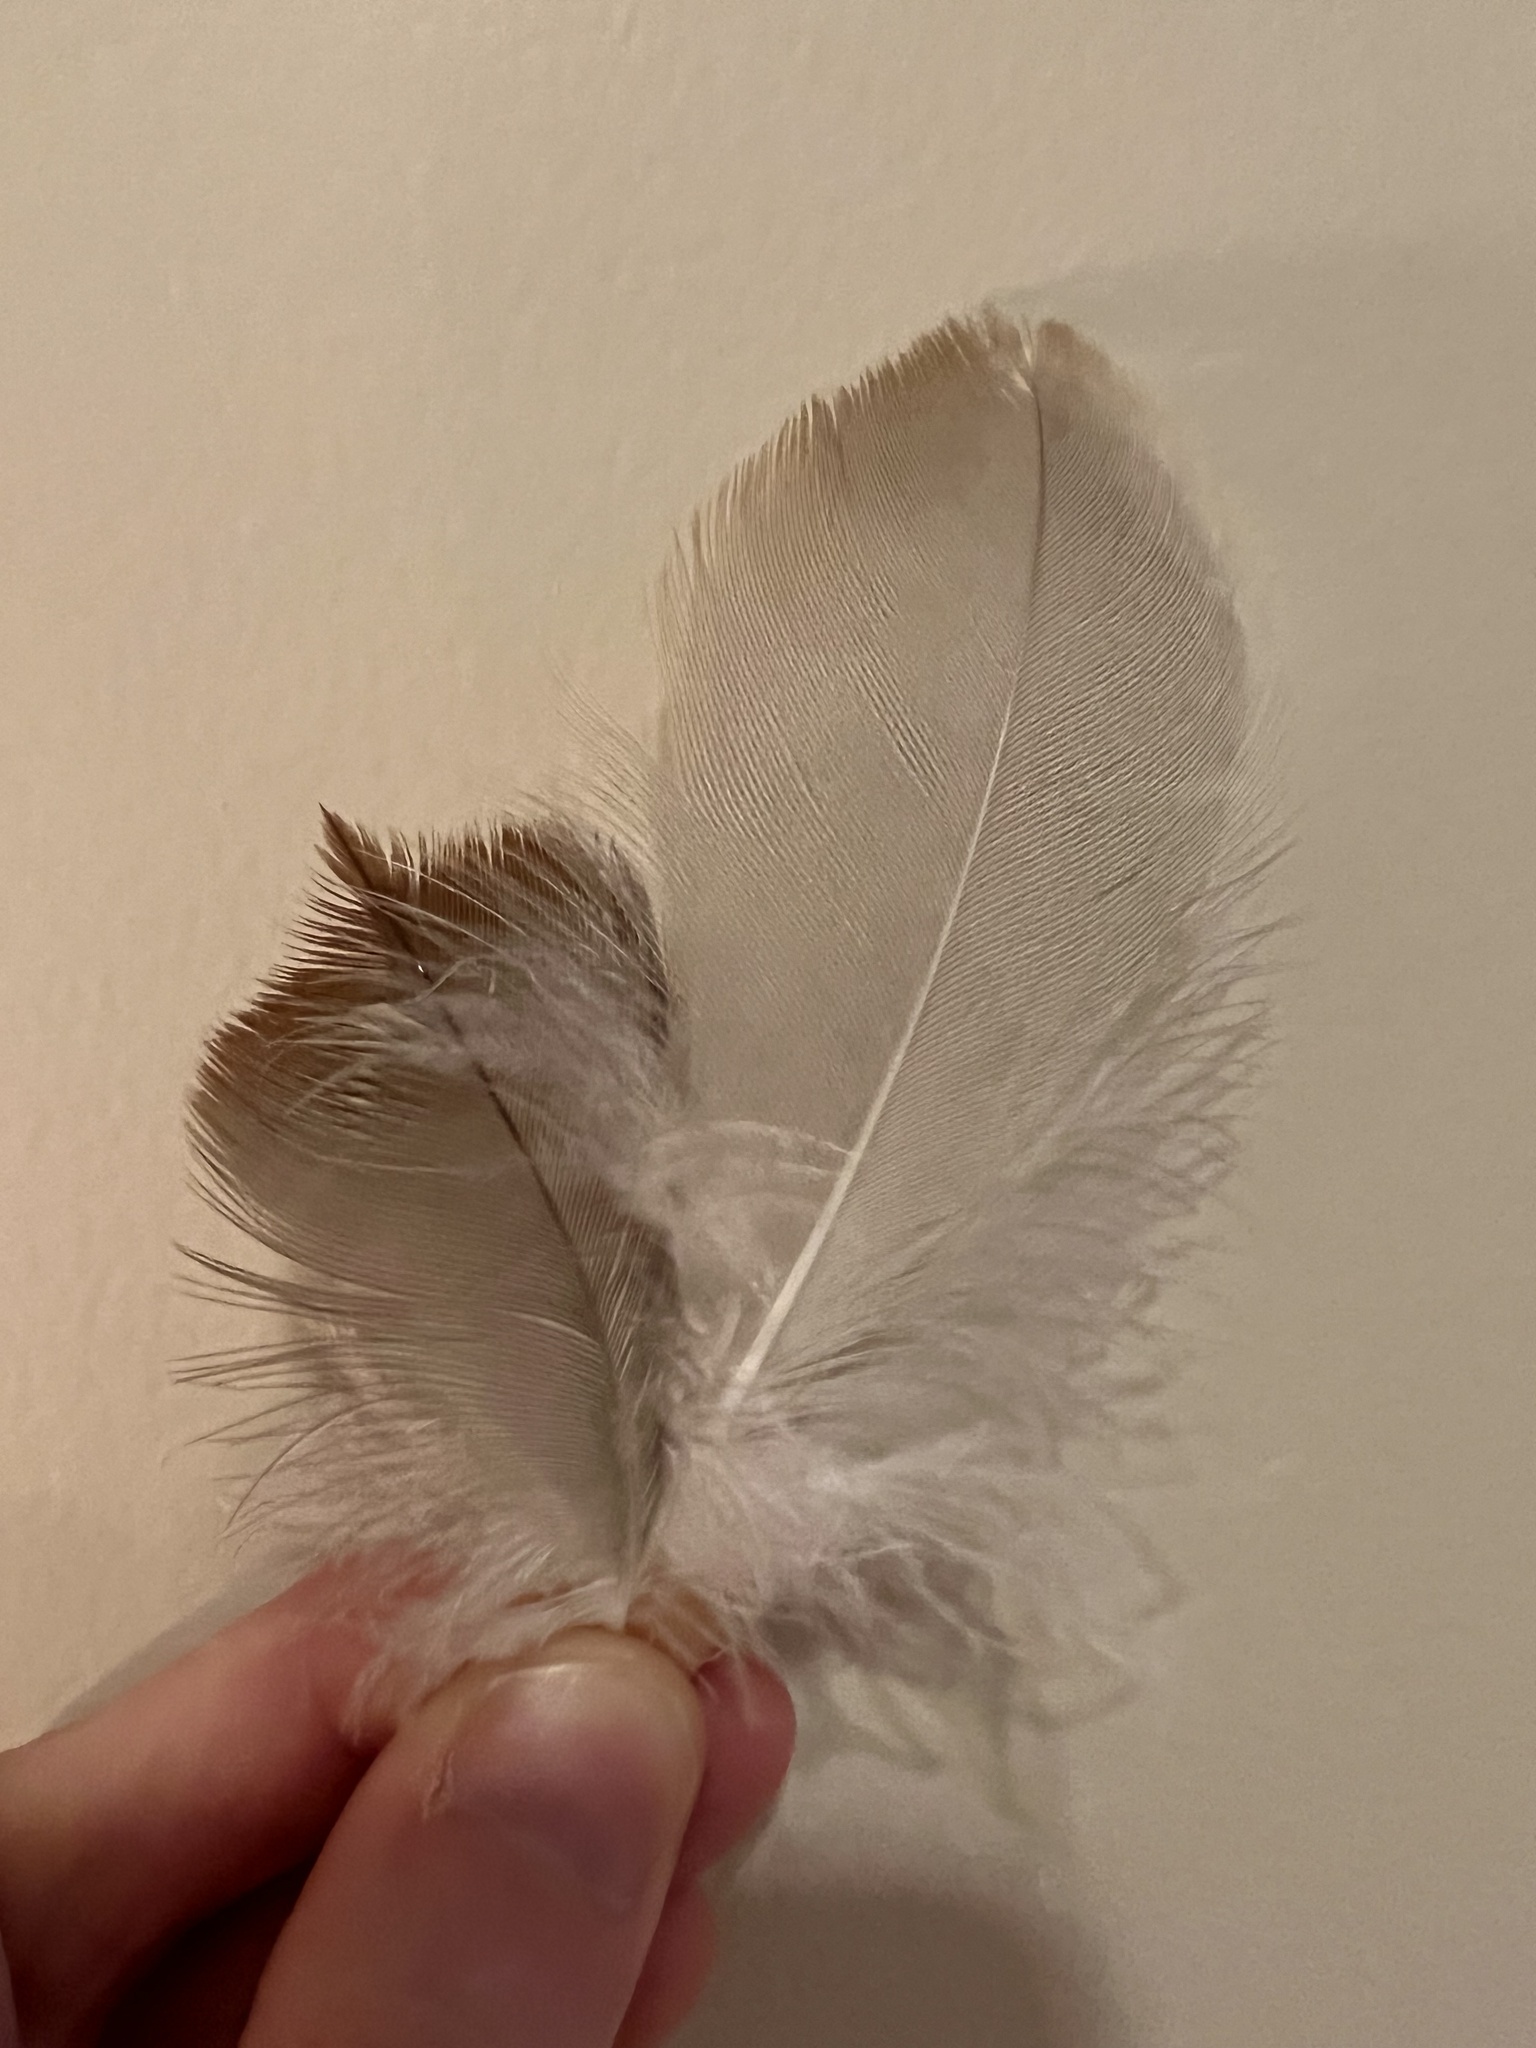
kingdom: Animalia
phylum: Chordata
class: Aves
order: Gruiformes
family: Gruidae
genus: Grus
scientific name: Grus canadensis
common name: Sandhill crane
